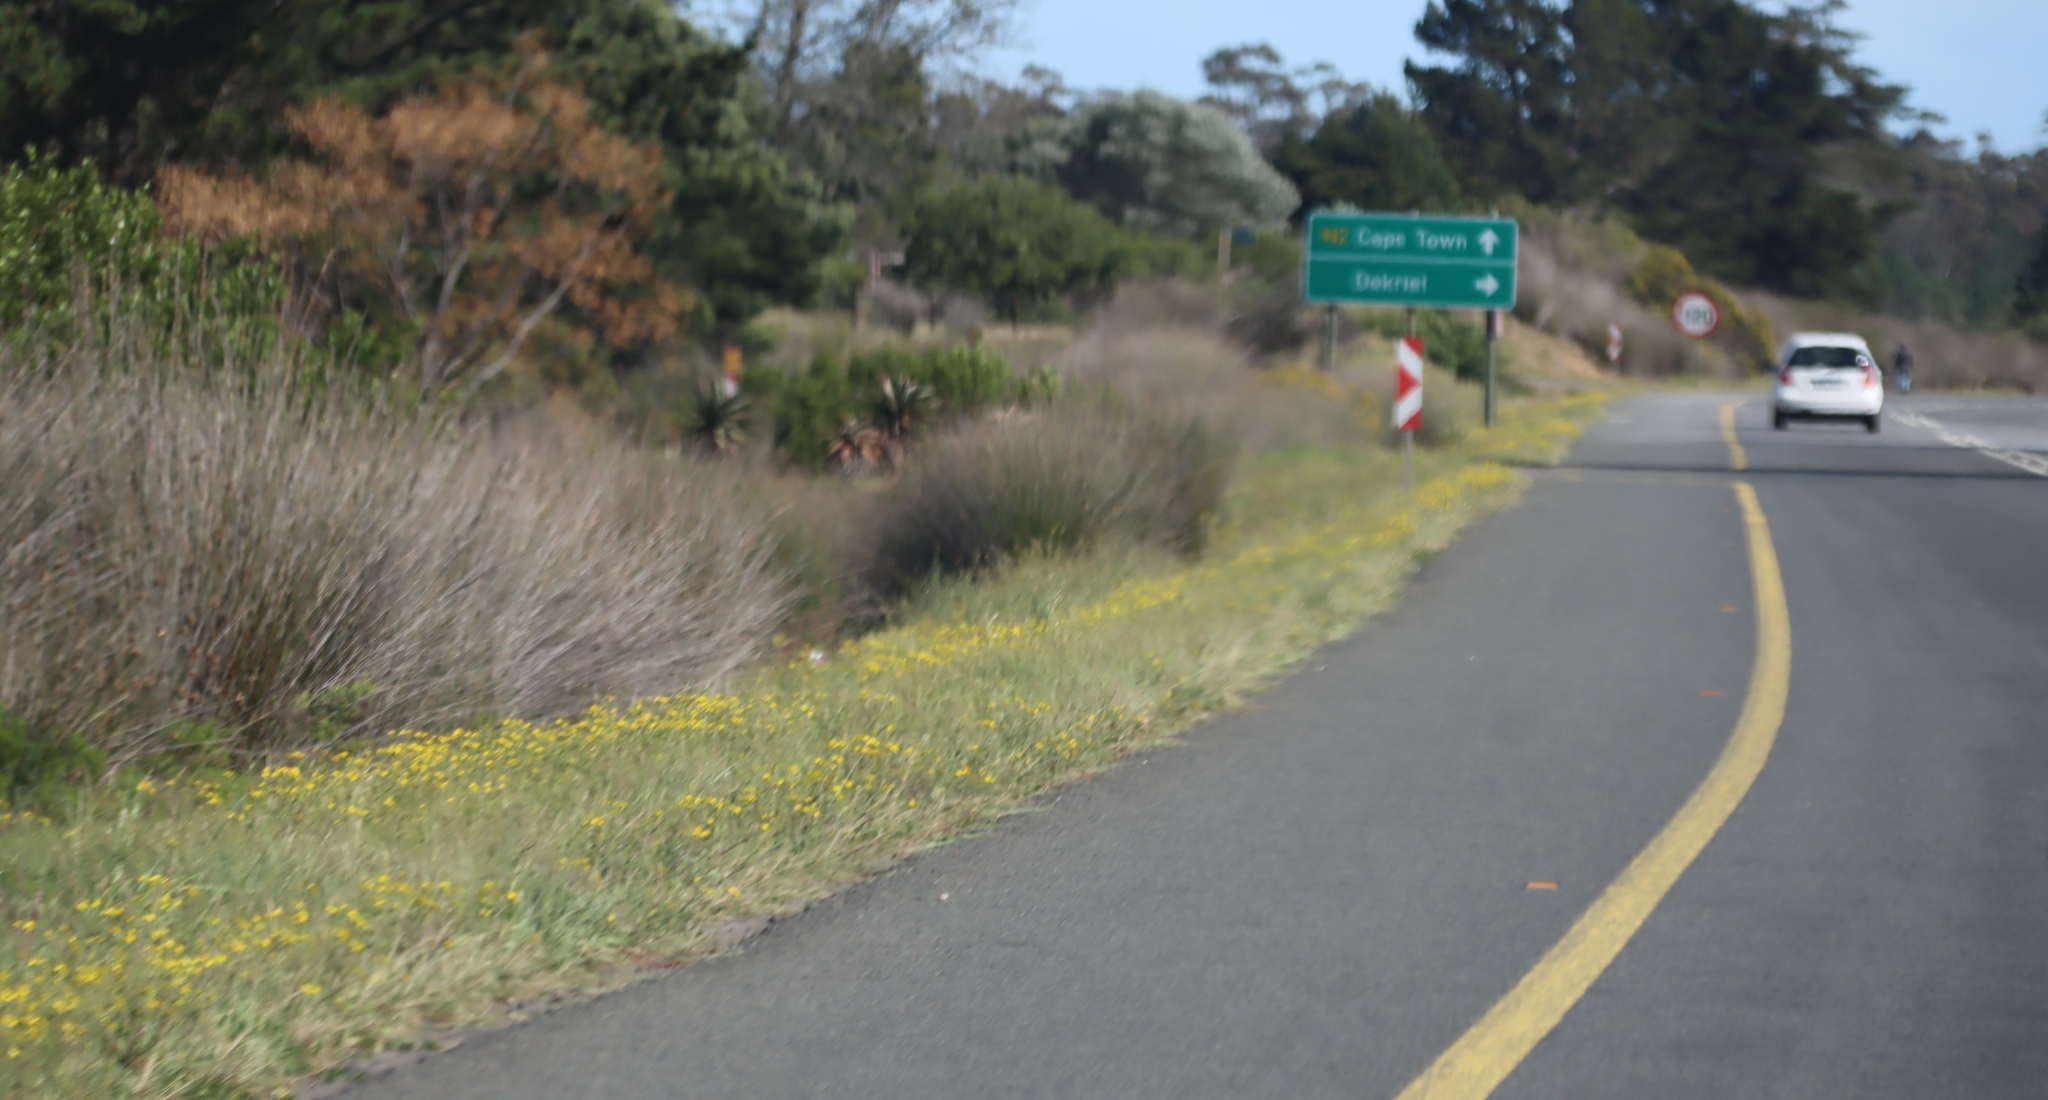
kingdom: Plantae
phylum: Tracheophyta
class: Liliopsida
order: Poales
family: Restionaceae
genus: Thamnochortus
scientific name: Thamnochortus insignis
